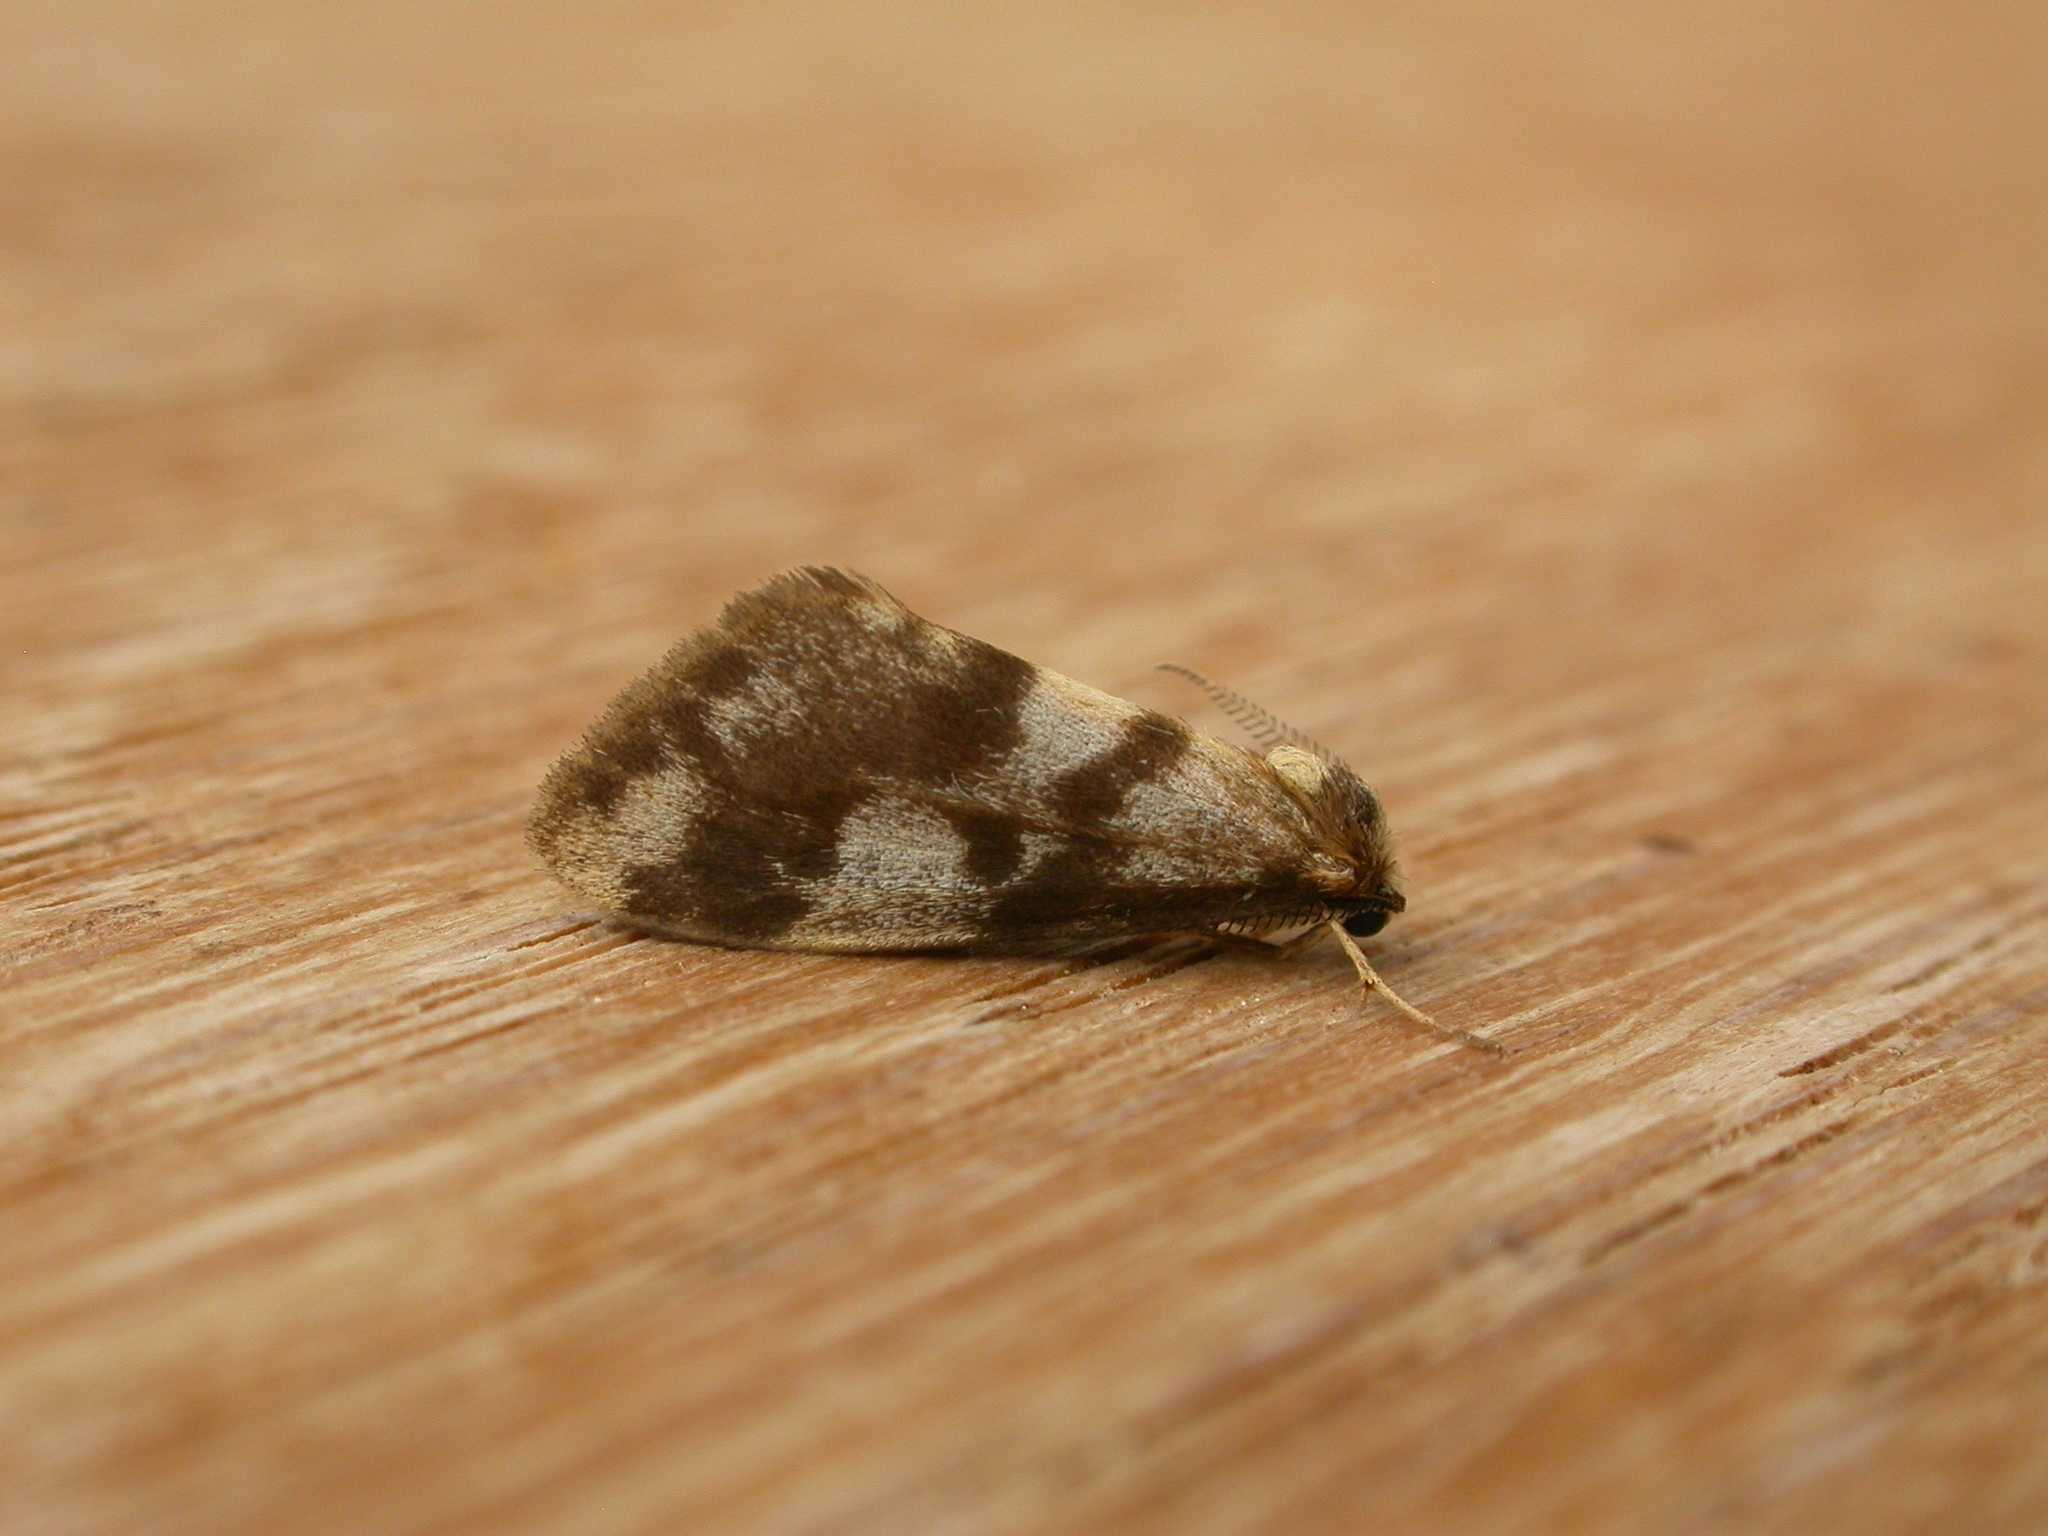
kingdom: Animalia
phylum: Arthropoda
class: Insecta
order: Lepidoptera
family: Erebidae
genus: Anestia
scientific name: Anestia
